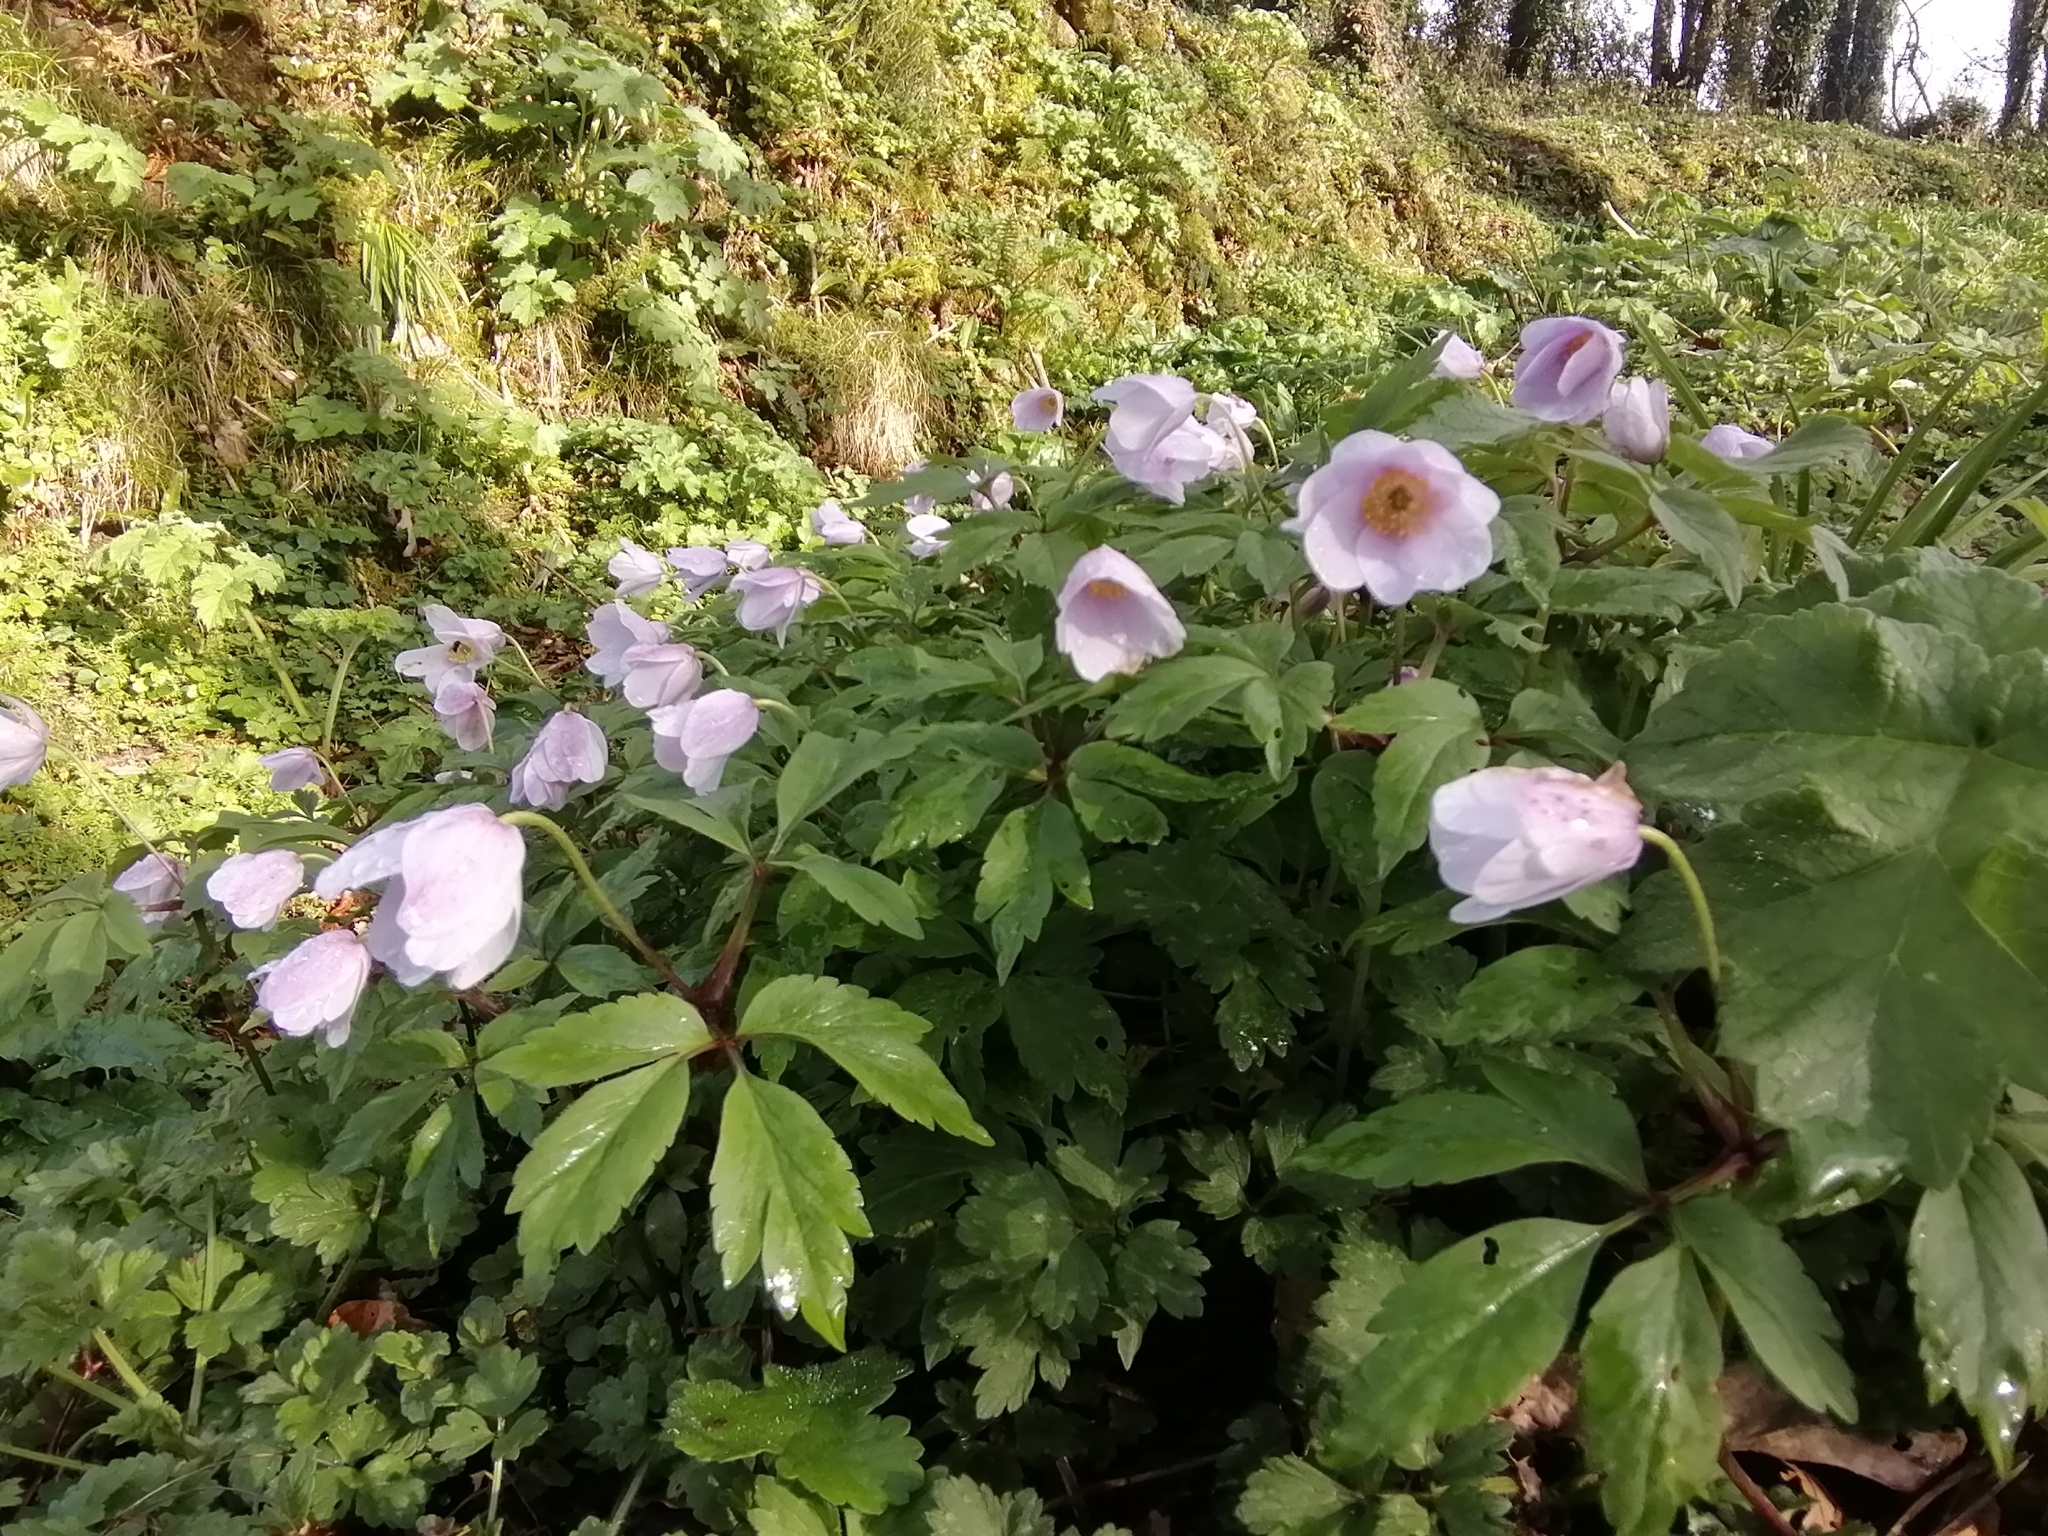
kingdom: Plantae
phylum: Tracheophyta
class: Magnoliopsida
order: Ranunculales
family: Ranunculaceae
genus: Anemone
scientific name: Anemone nemorosa
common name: Wood anemone
